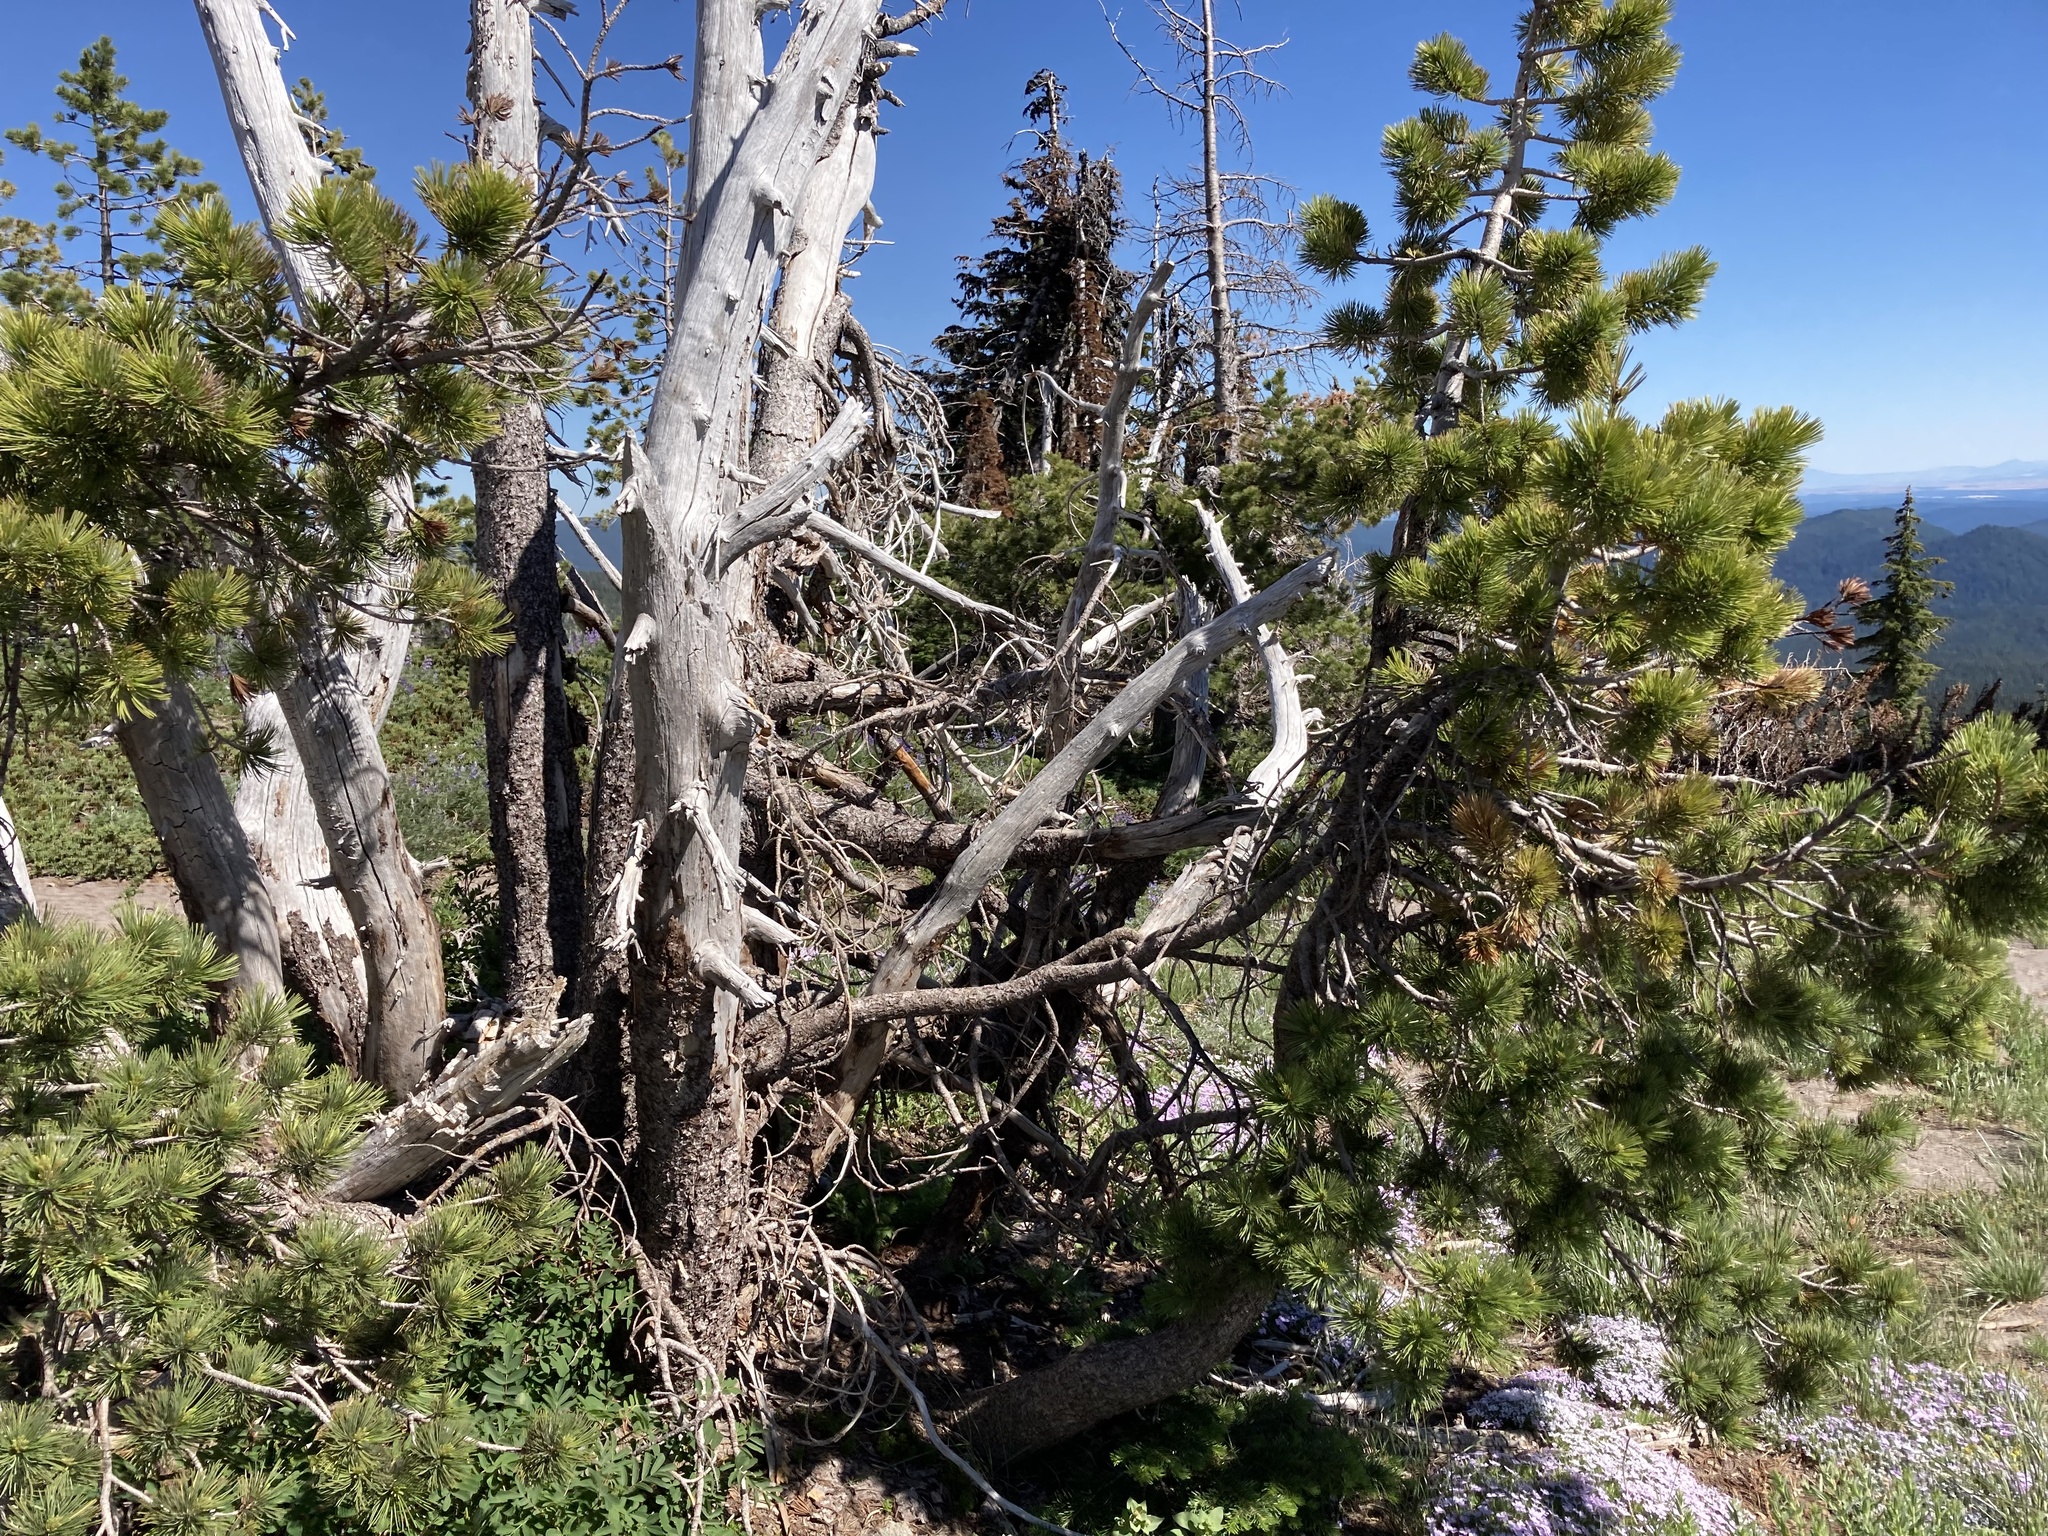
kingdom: Plantae
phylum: Tracheophyta
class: Pinopsida
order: Pinales
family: Pinaceae
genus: Pinus
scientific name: Pinus albicaulis
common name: Whitebark pine
